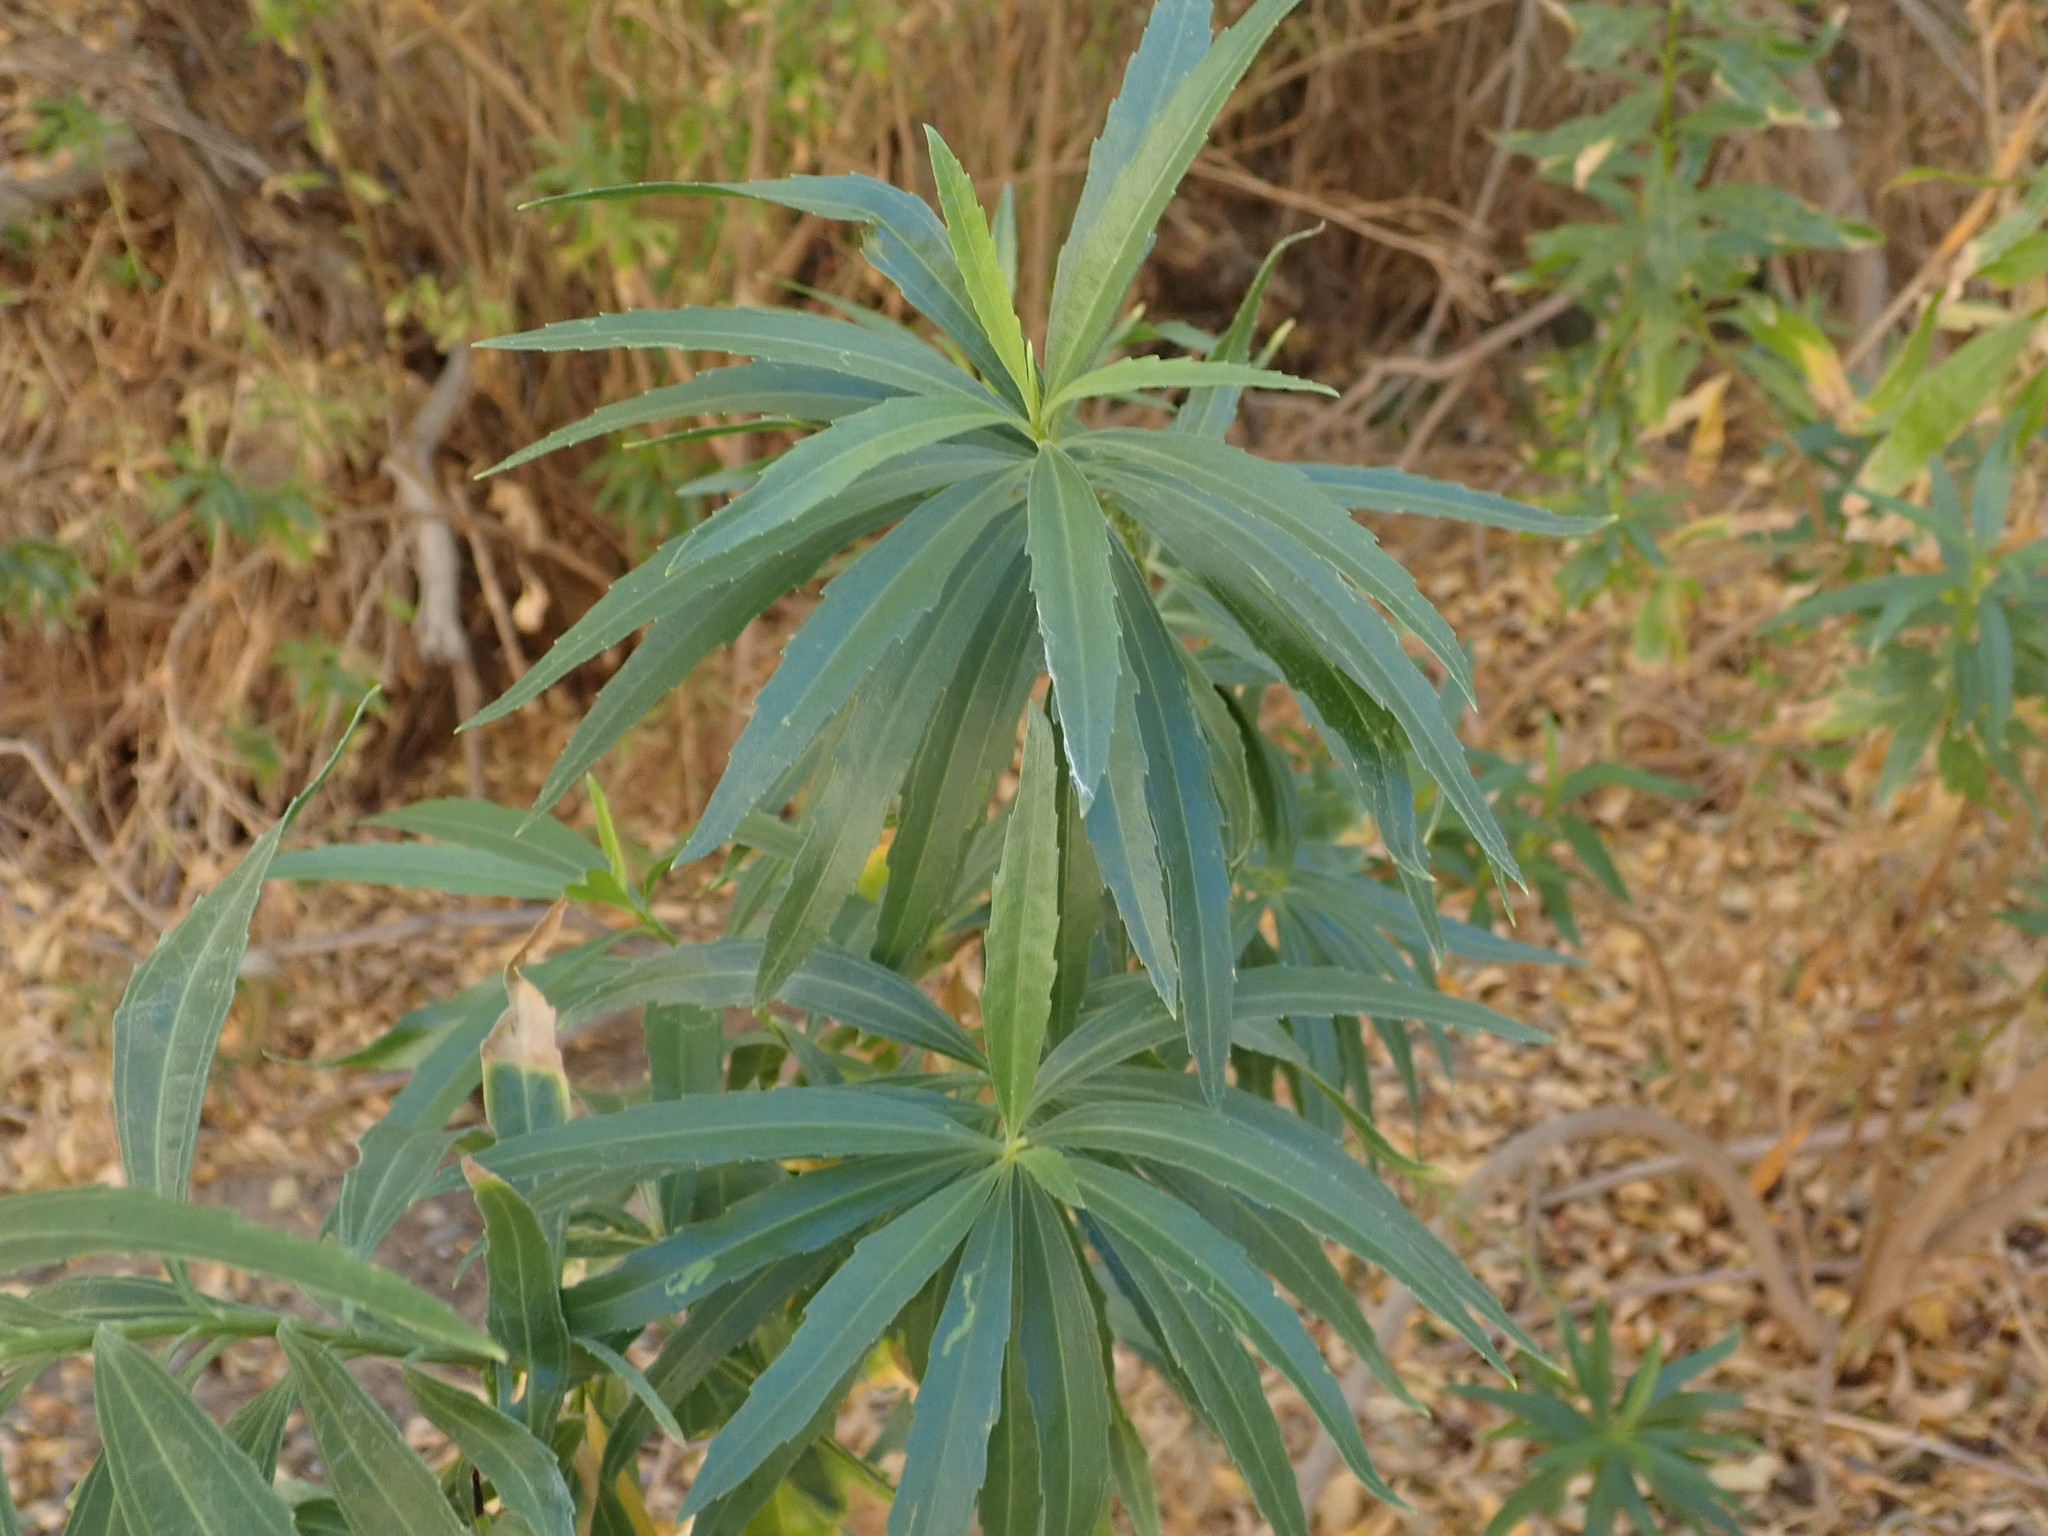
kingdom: Plantae
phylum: Tracheophyta
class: Magnoliopsida
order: Asterales
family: Asteraceae
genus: Baccharis
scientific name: Baccharis salicifolia
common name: Sticky baccharis
